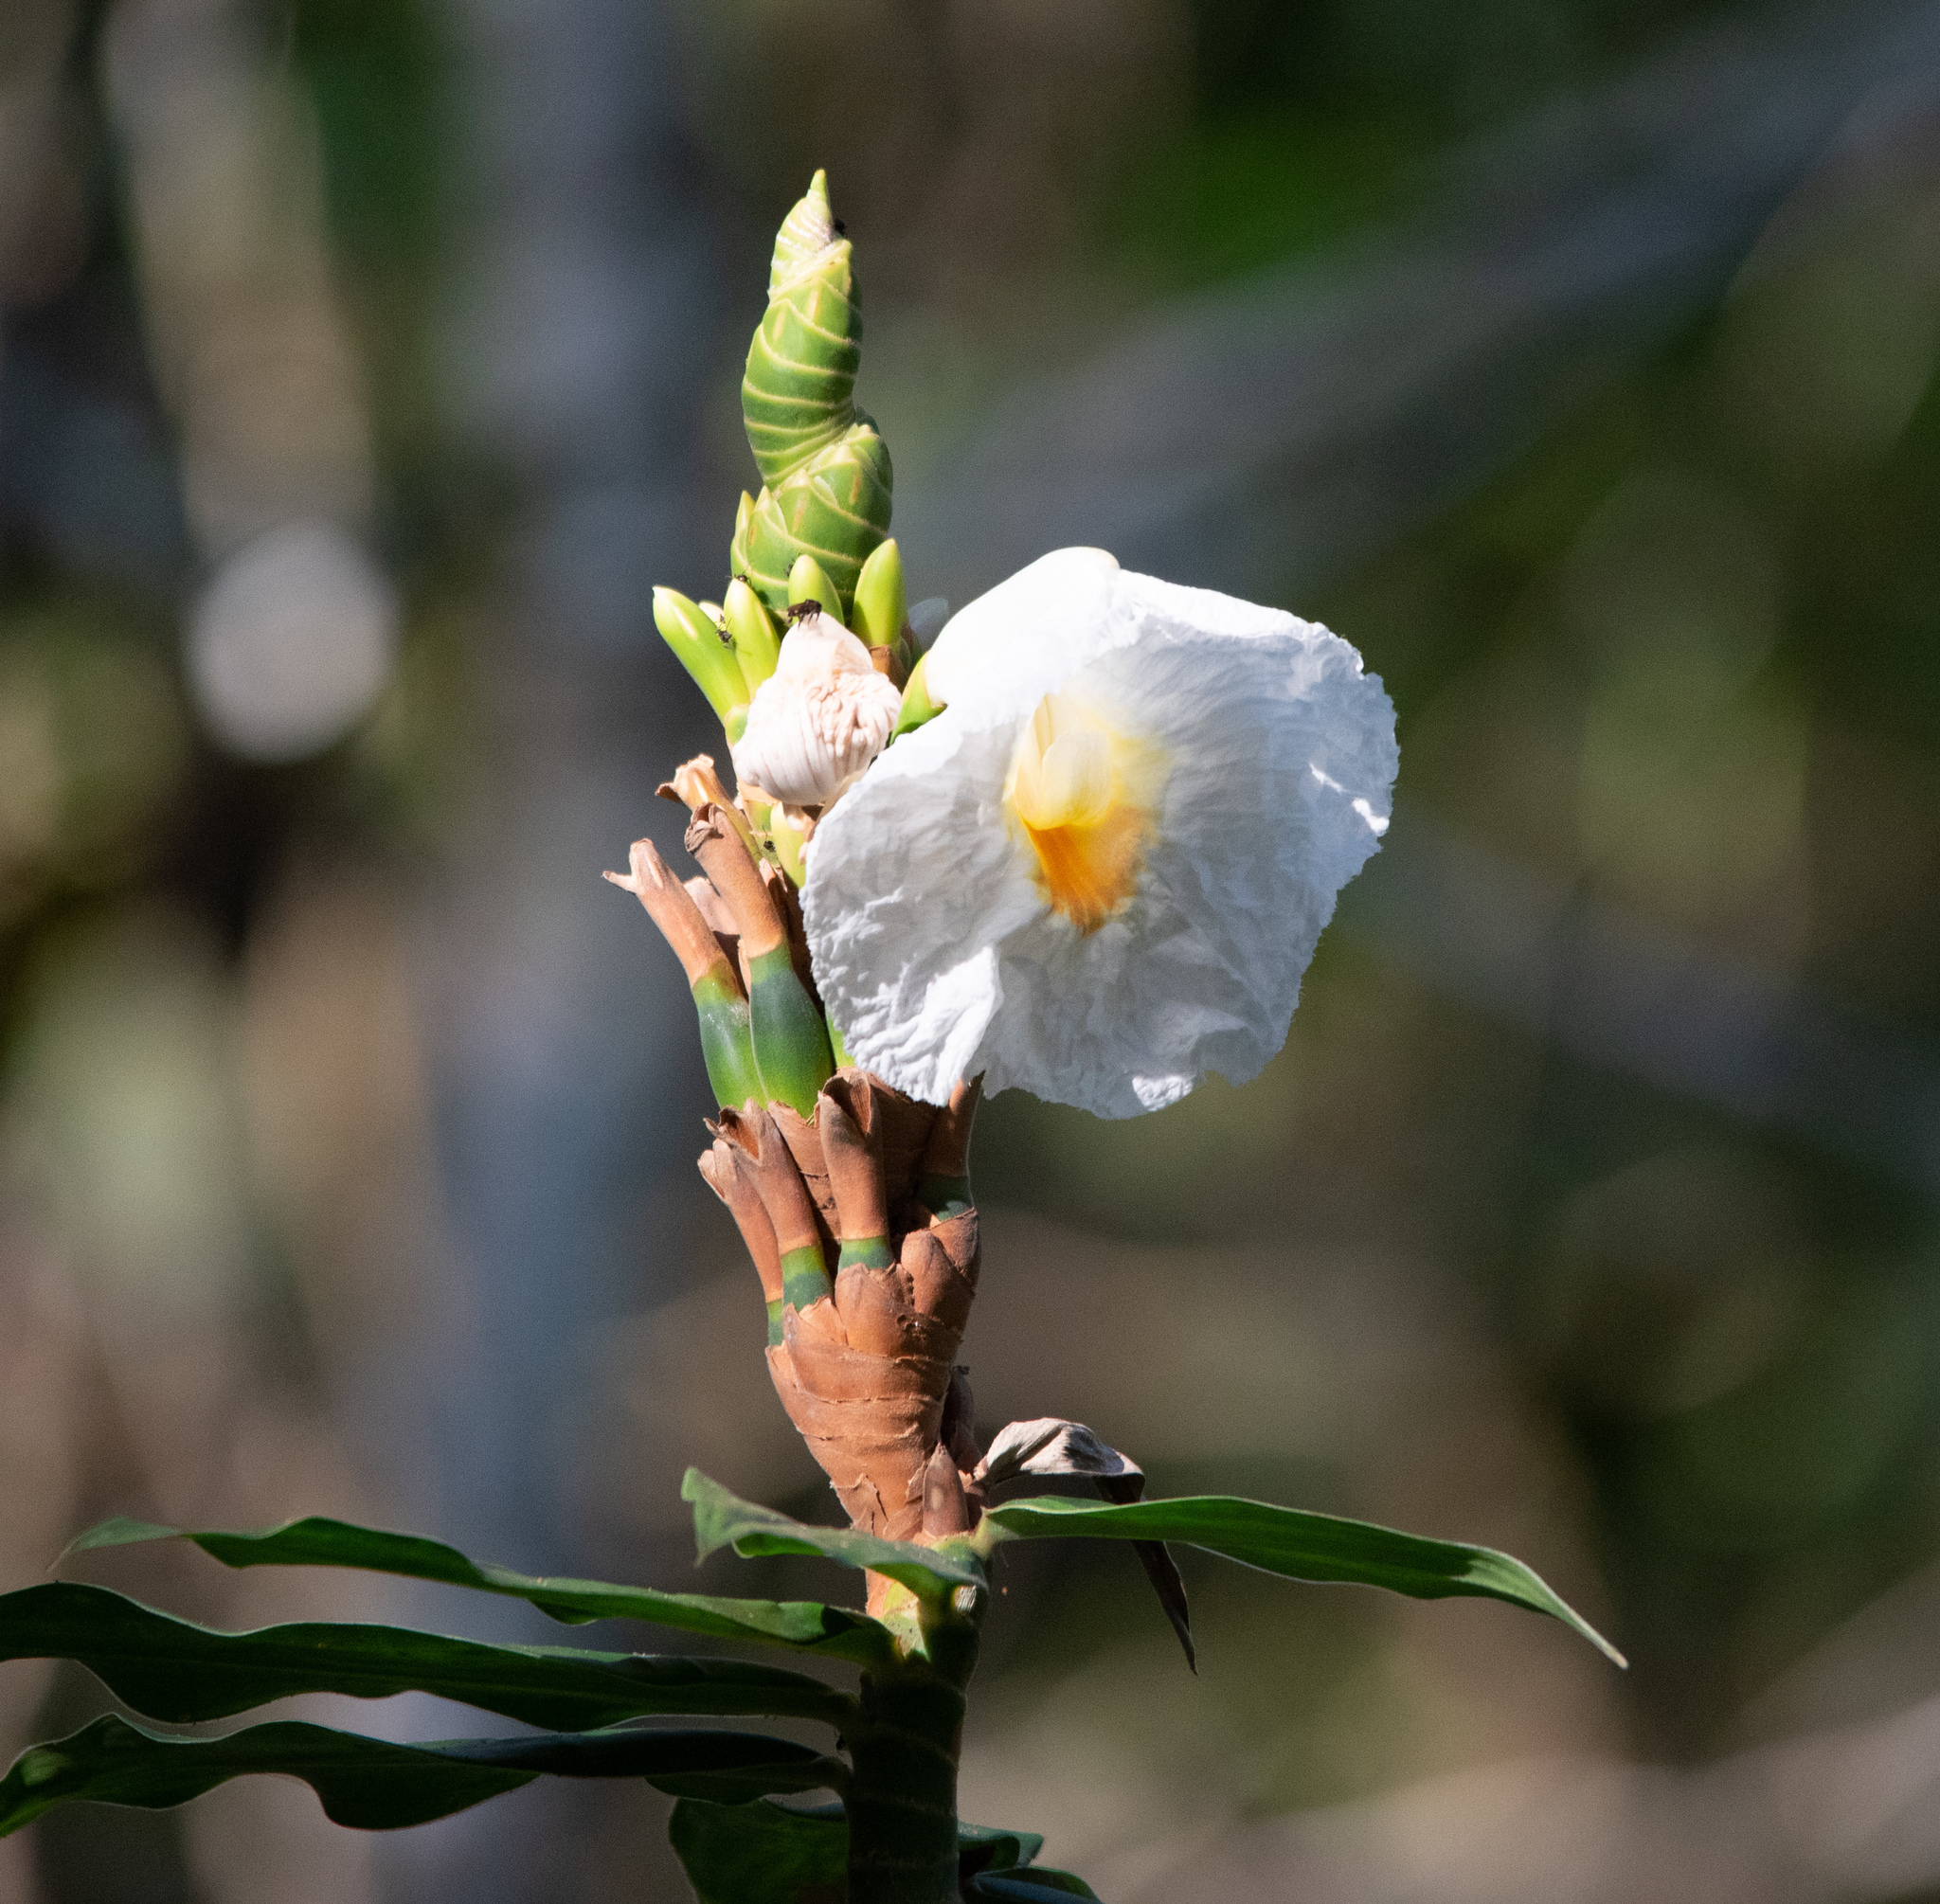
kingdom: Plantae
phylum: Tracheophyta
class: Liliopsida
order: Zingiberales
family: Costaceae
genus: Hellenia
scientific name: Hellenia speciosa
